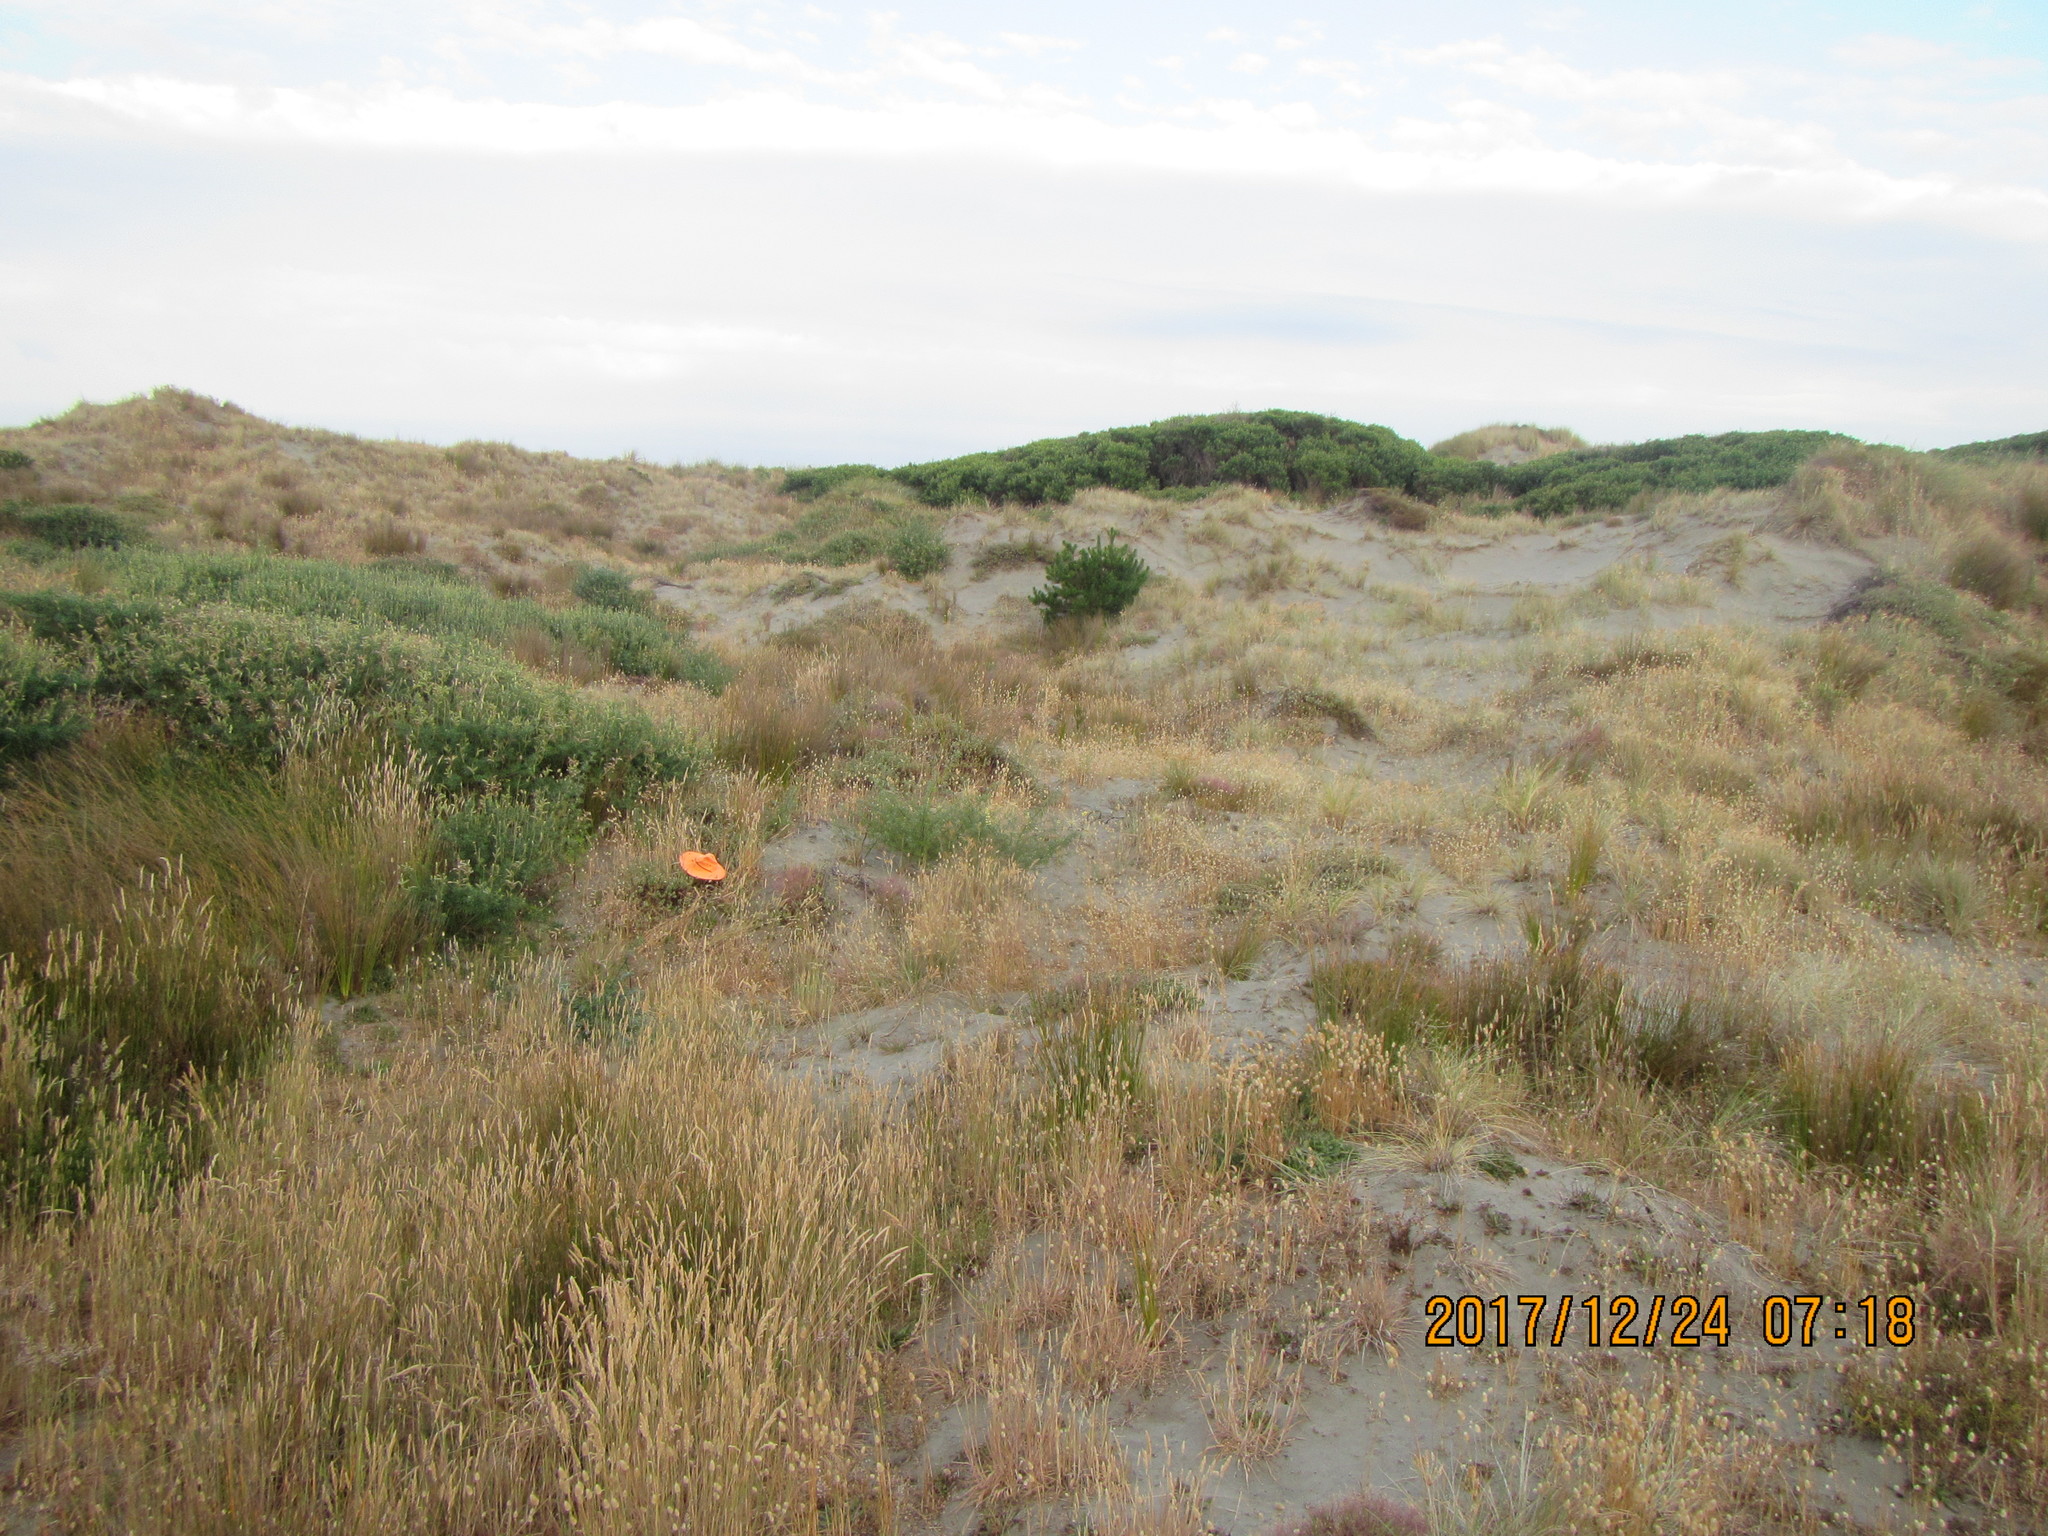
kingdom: Animalia
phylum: Arthropoda
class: Arachnida
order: Araneae
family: Theridiidae
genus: Latrodectus
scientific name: Latrodectus katipo
